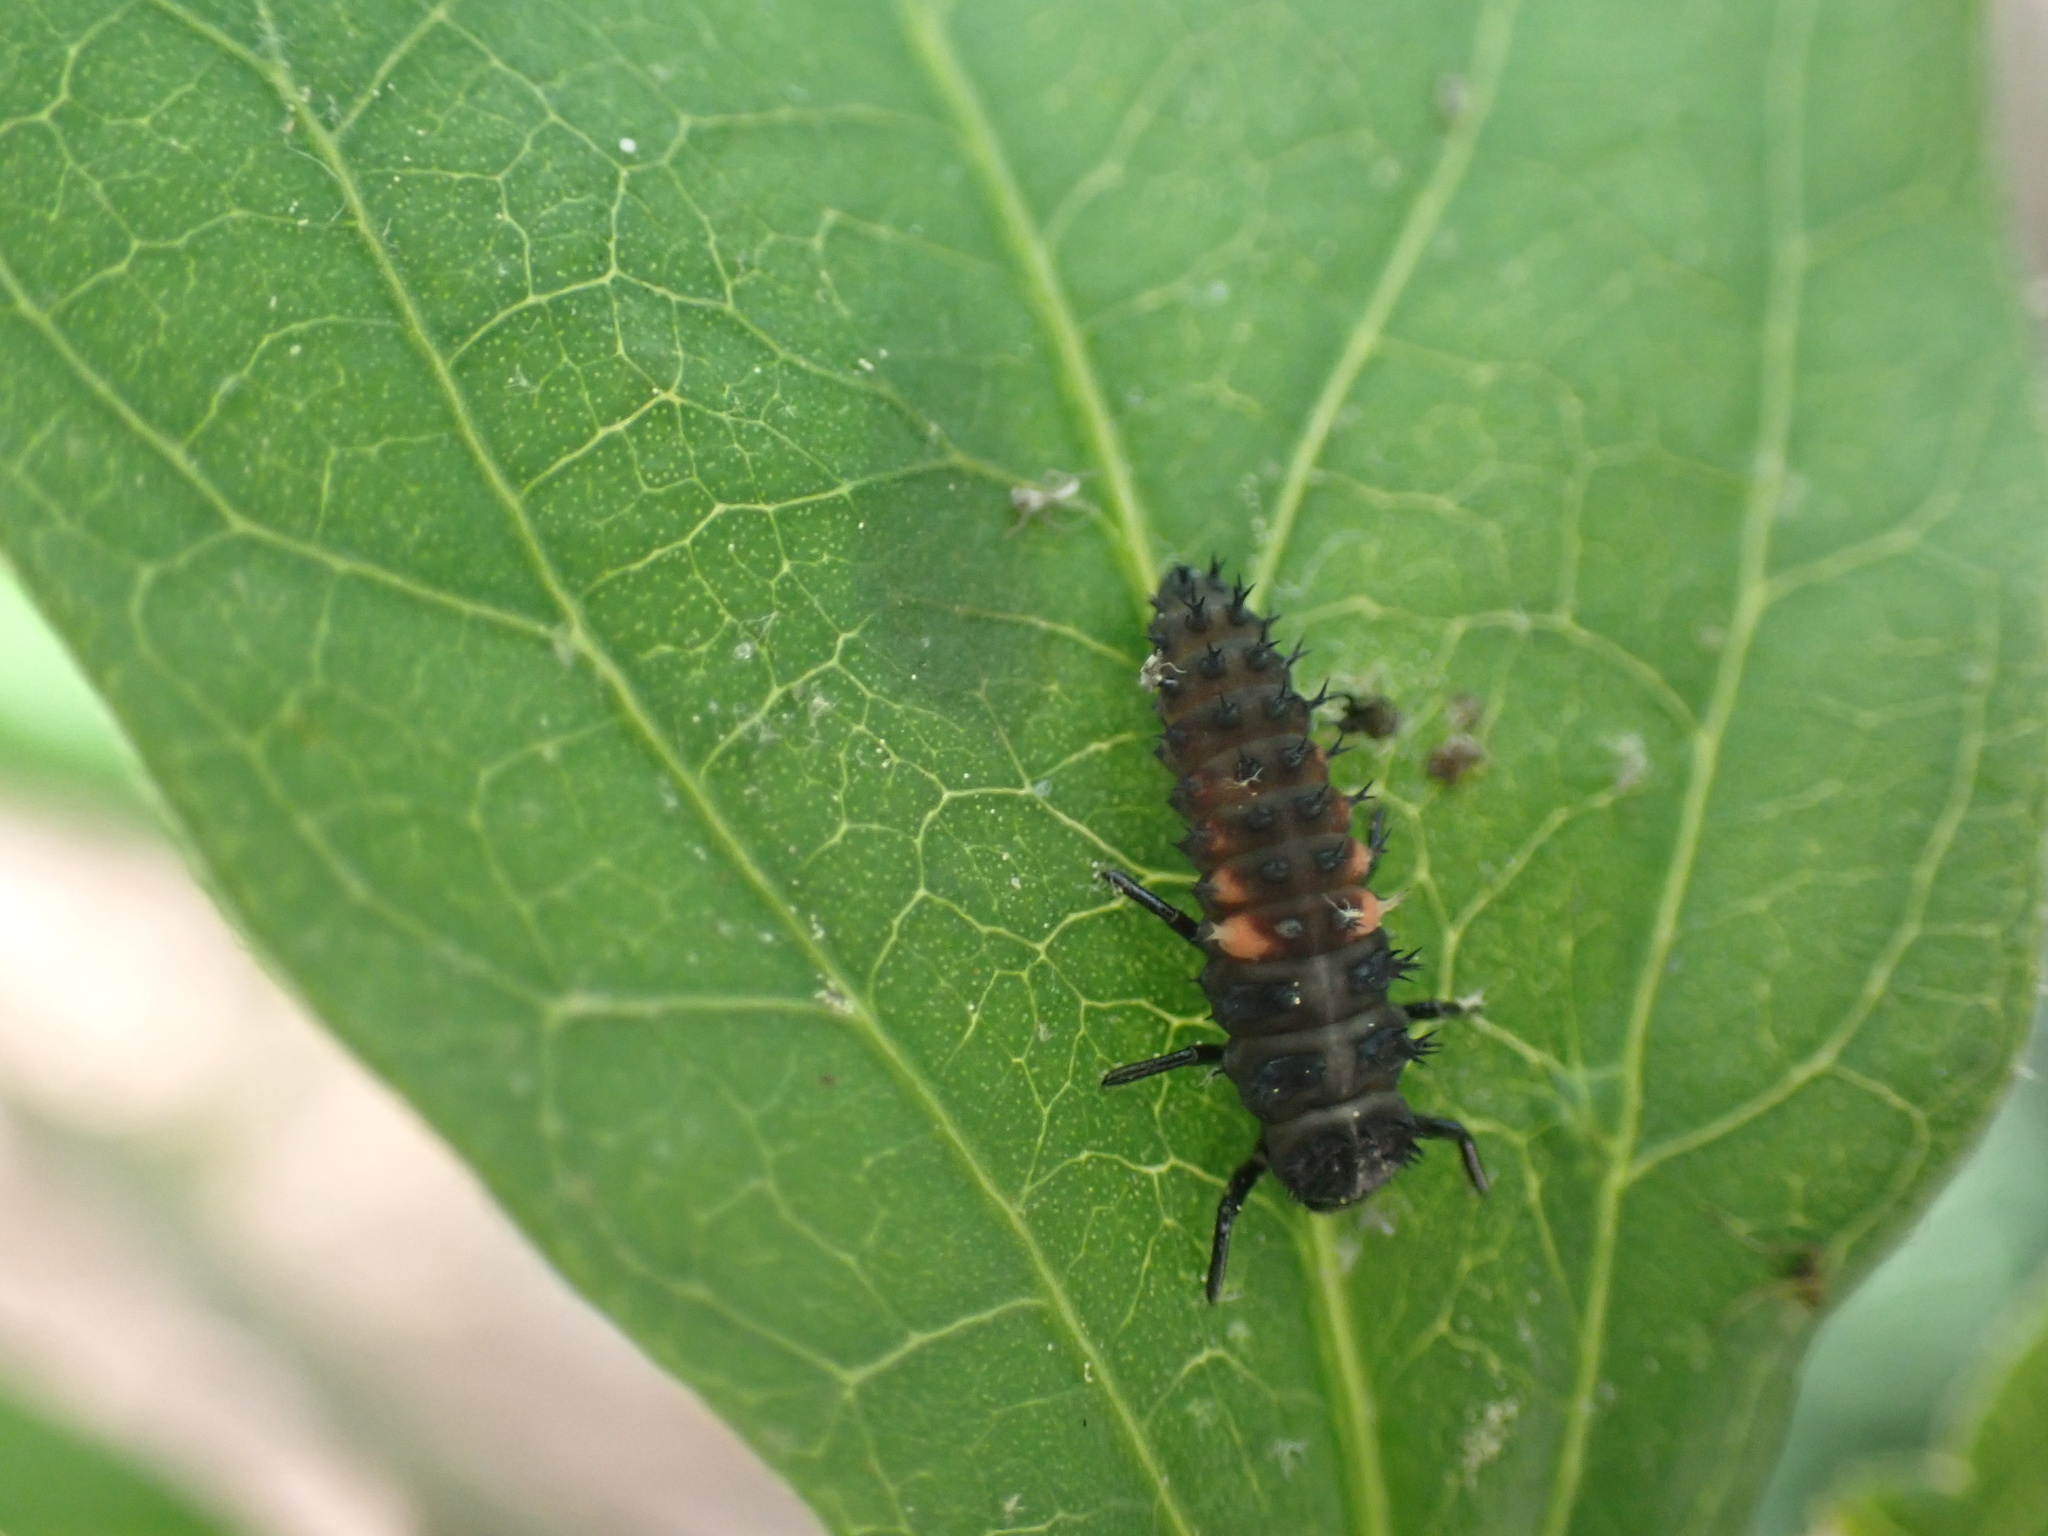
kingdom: Animalia
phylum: Arthropoda
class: Insecta
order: Coleoptera
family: Coccinellidae
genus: Harmonia
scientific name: Harmonia axyridis
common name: Harlequin ladybird
